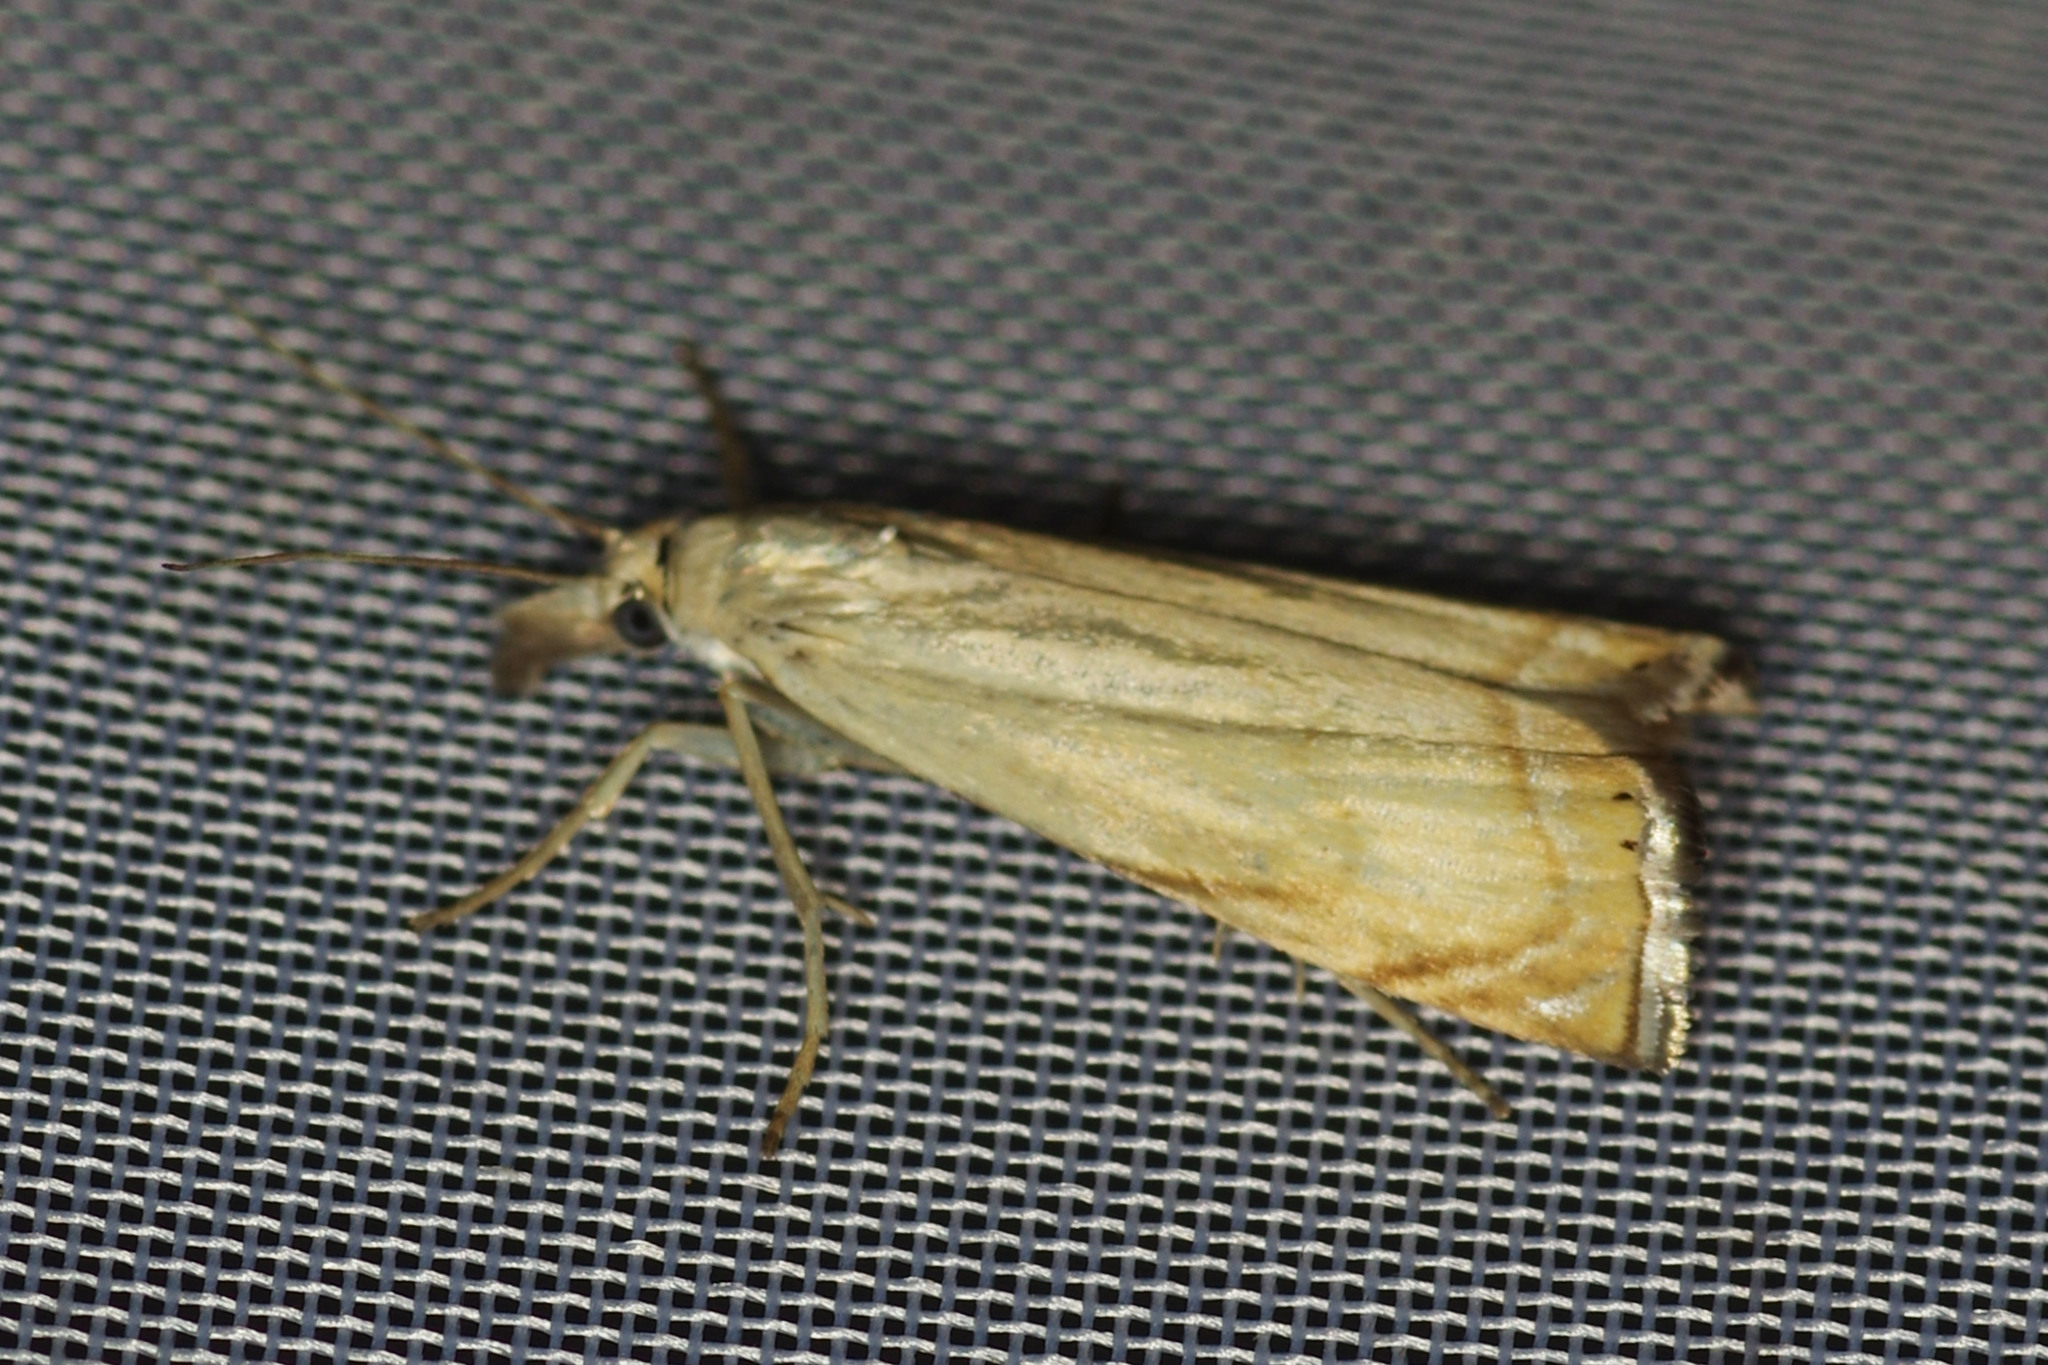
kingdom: Animalia
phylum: Arthropoda
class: Insecta
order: Lepidoptera
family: Crambidae
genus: Chrysoteuchia
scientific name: Chrysoteuchia culmella
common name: Garden grass-veneer
